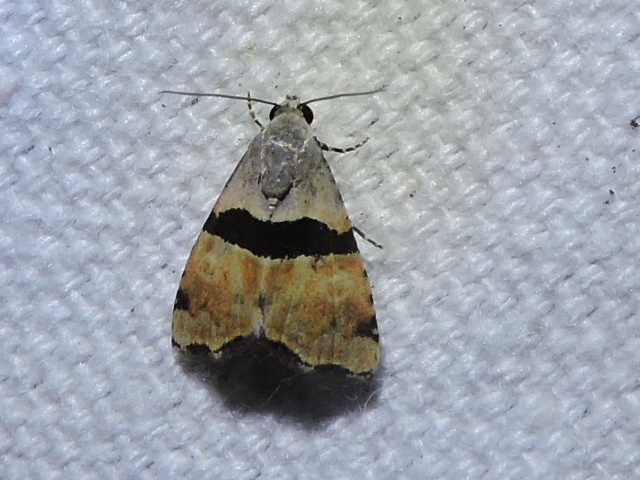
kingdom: Animalia
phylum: Arthropoda
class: Insecta
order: Lepidoptera
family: Noctuidae
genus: Cobubatha
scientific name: Cobubatha lixiva
